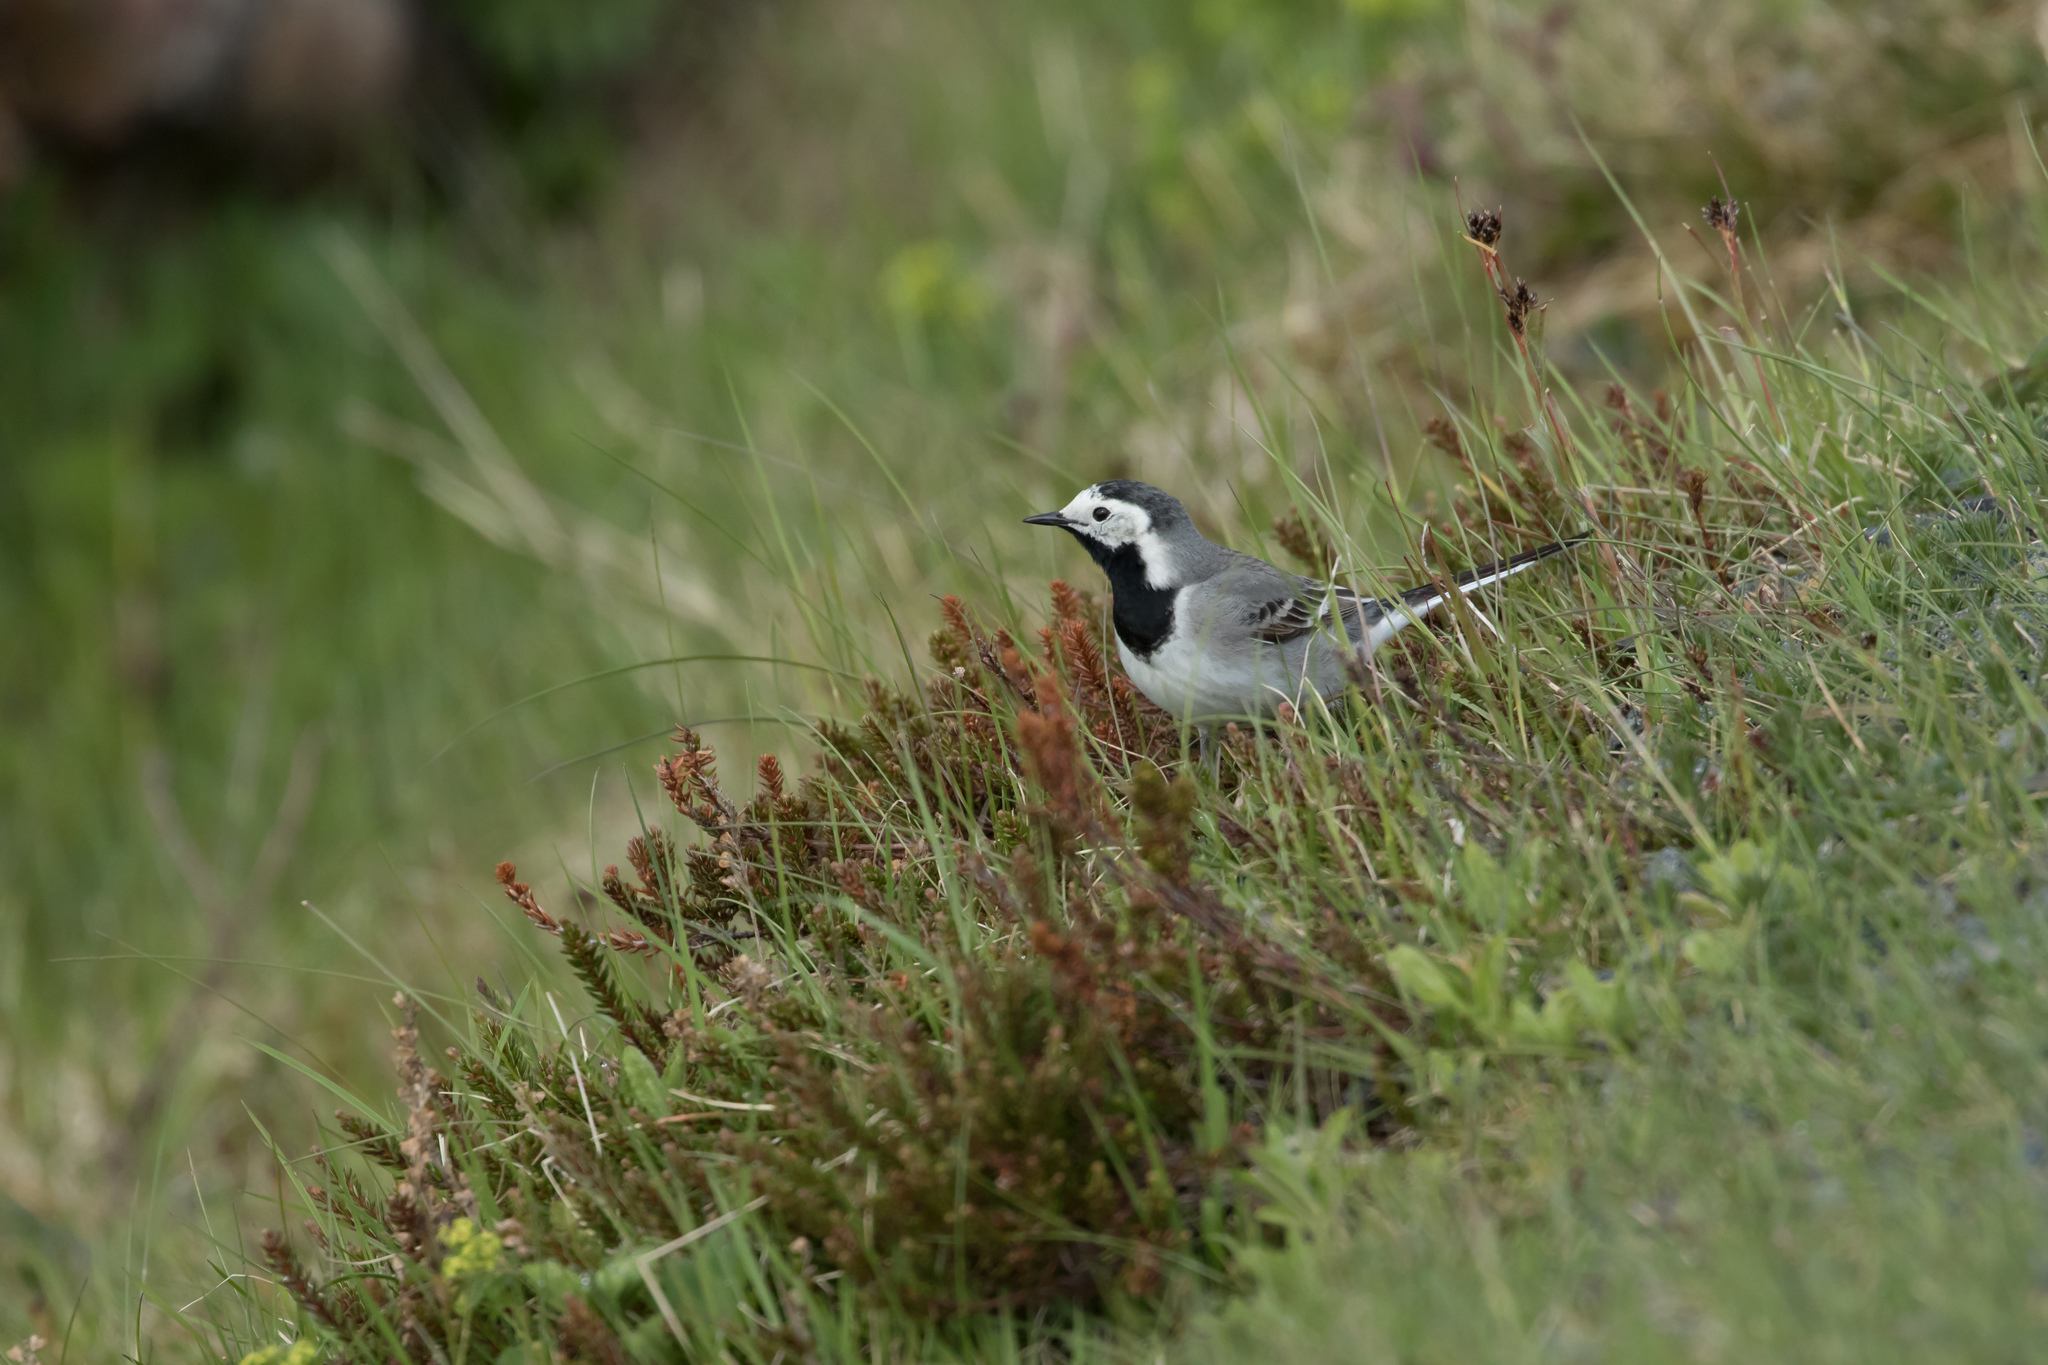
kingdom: Animalia
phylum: Chordata
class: Aves
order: Passeriformes
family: Motacillidae
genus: Motacilla
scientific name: Motacilla alba
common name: White wagtail
